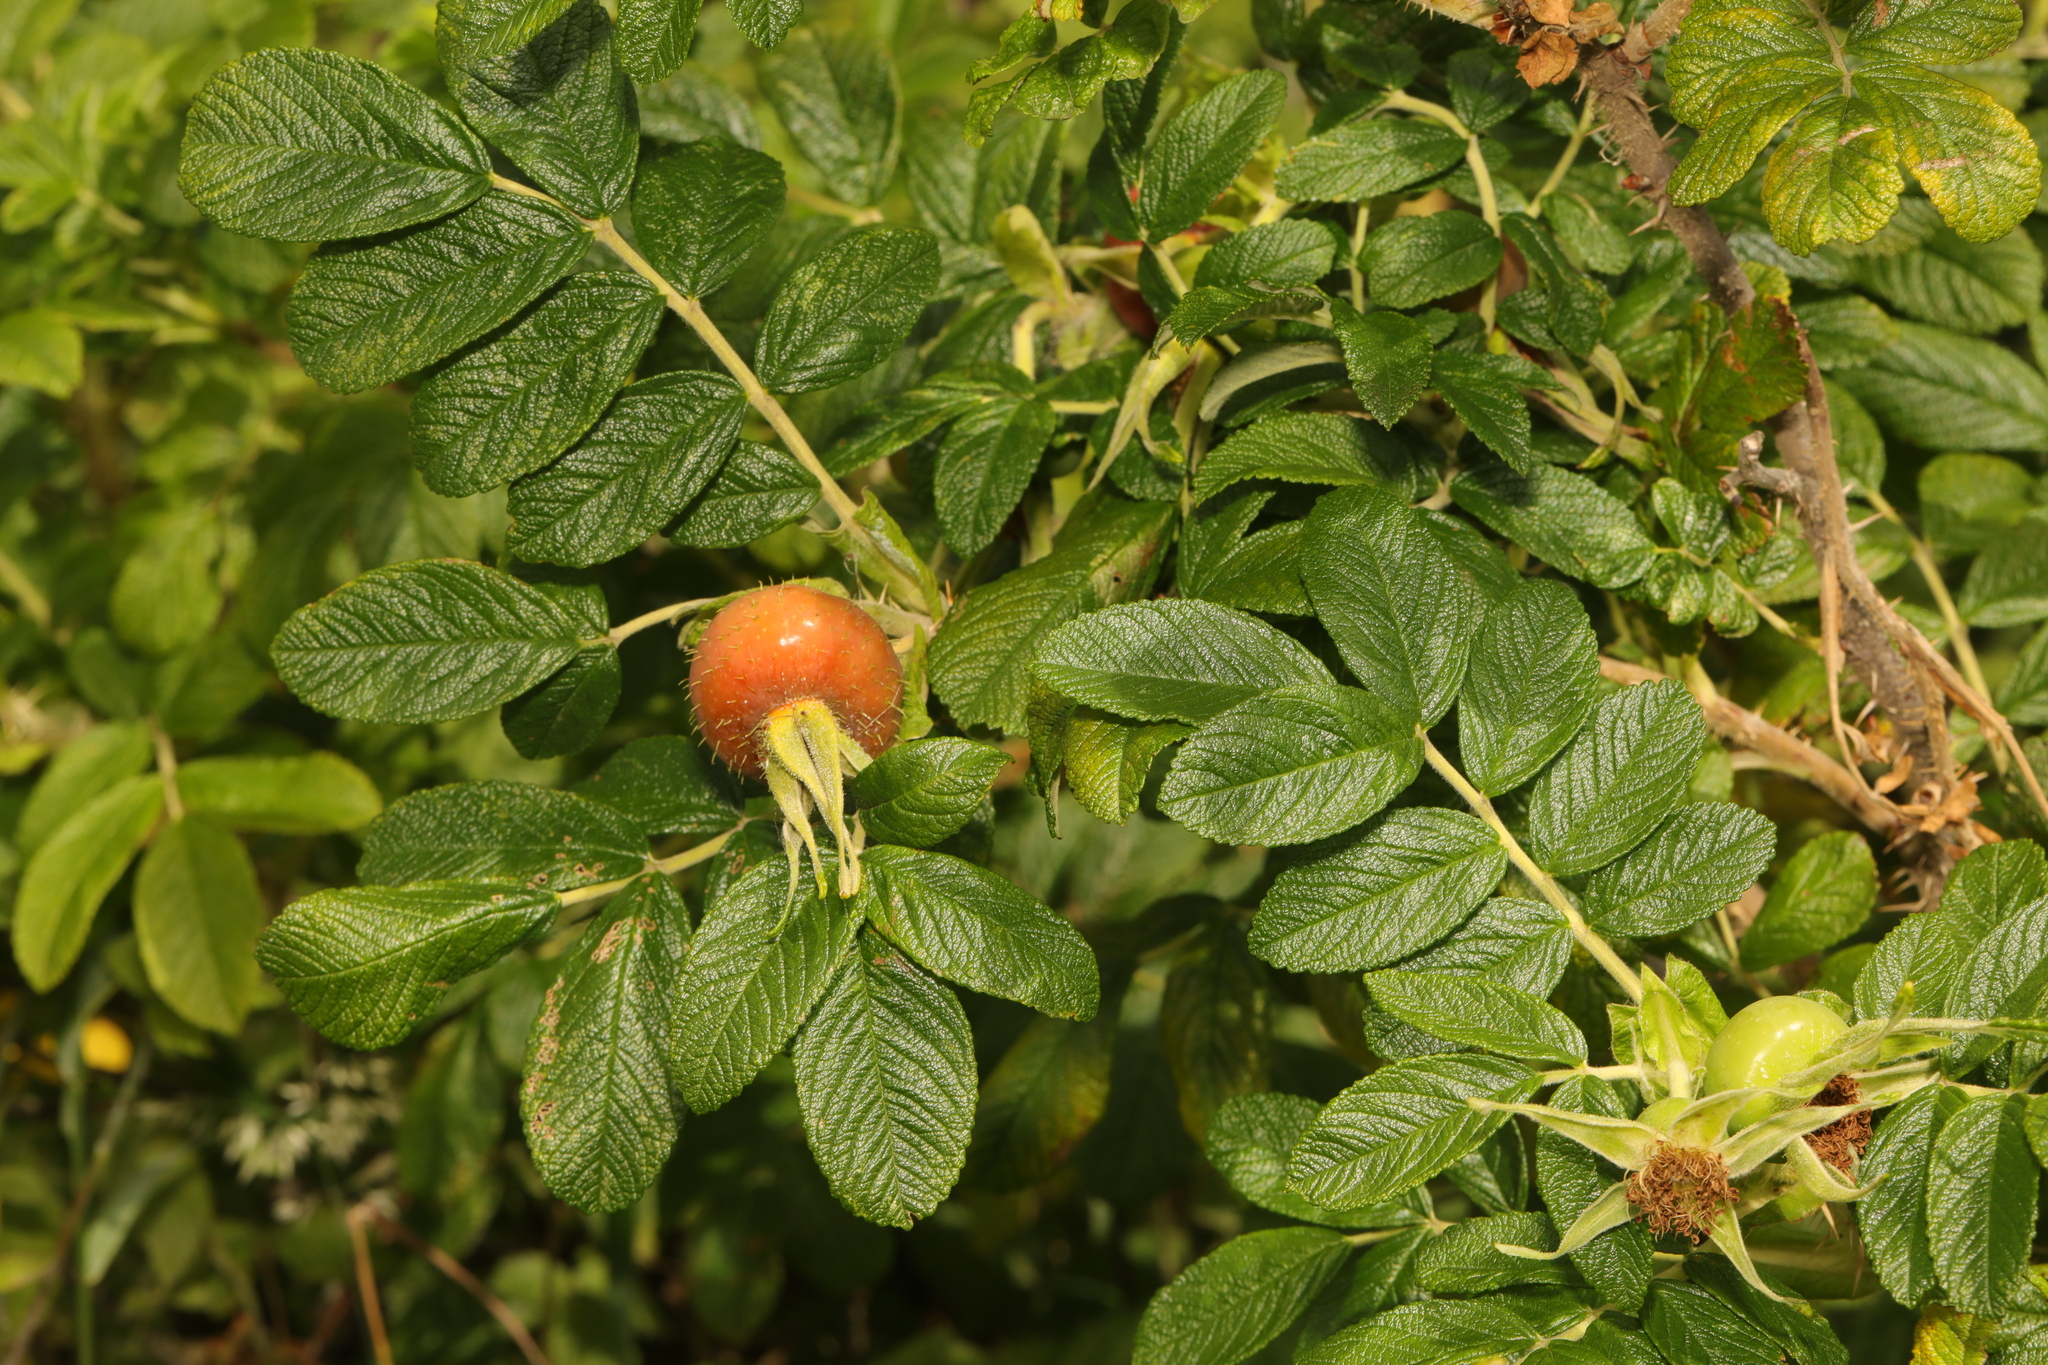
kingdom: Plantae
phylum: Tracheophyta
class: Magnoliopsida
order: Rosales
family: Rosaceae
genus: Rosa
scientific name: Rosa rugosa
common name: Japanese rose
